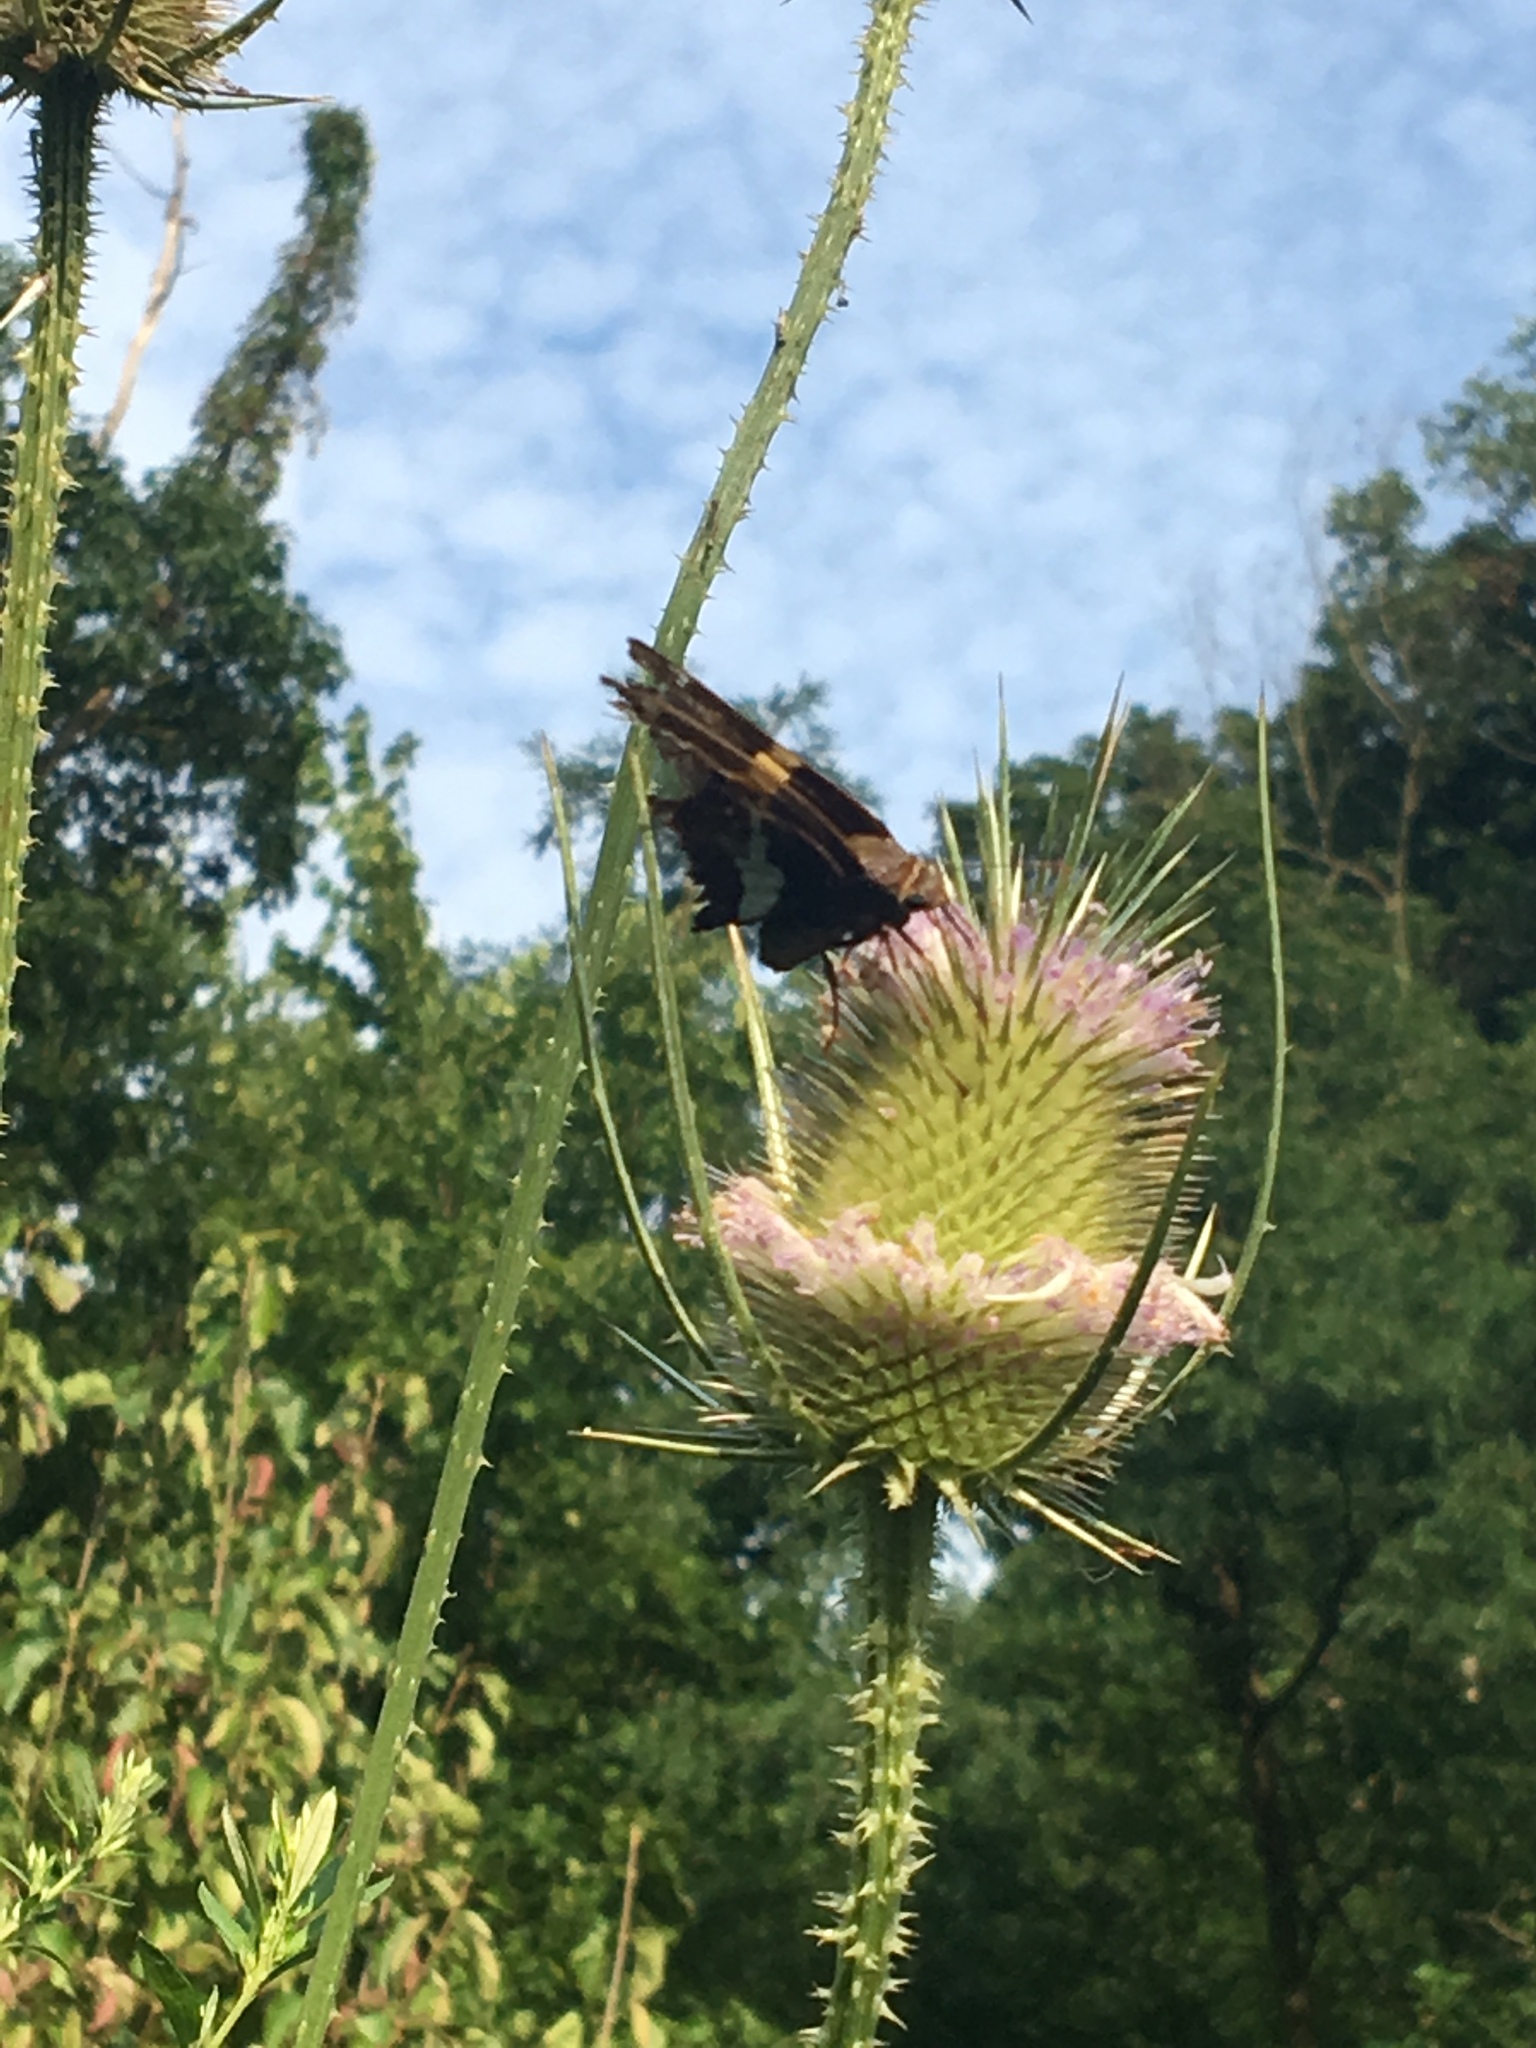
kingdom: Animalia
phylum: Arthropoda
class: Insecta
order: Lepidoptera
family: Hesperiidae
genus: Epargyreus
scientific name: Epargyreus clarus
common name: Silver-spotted skipper
